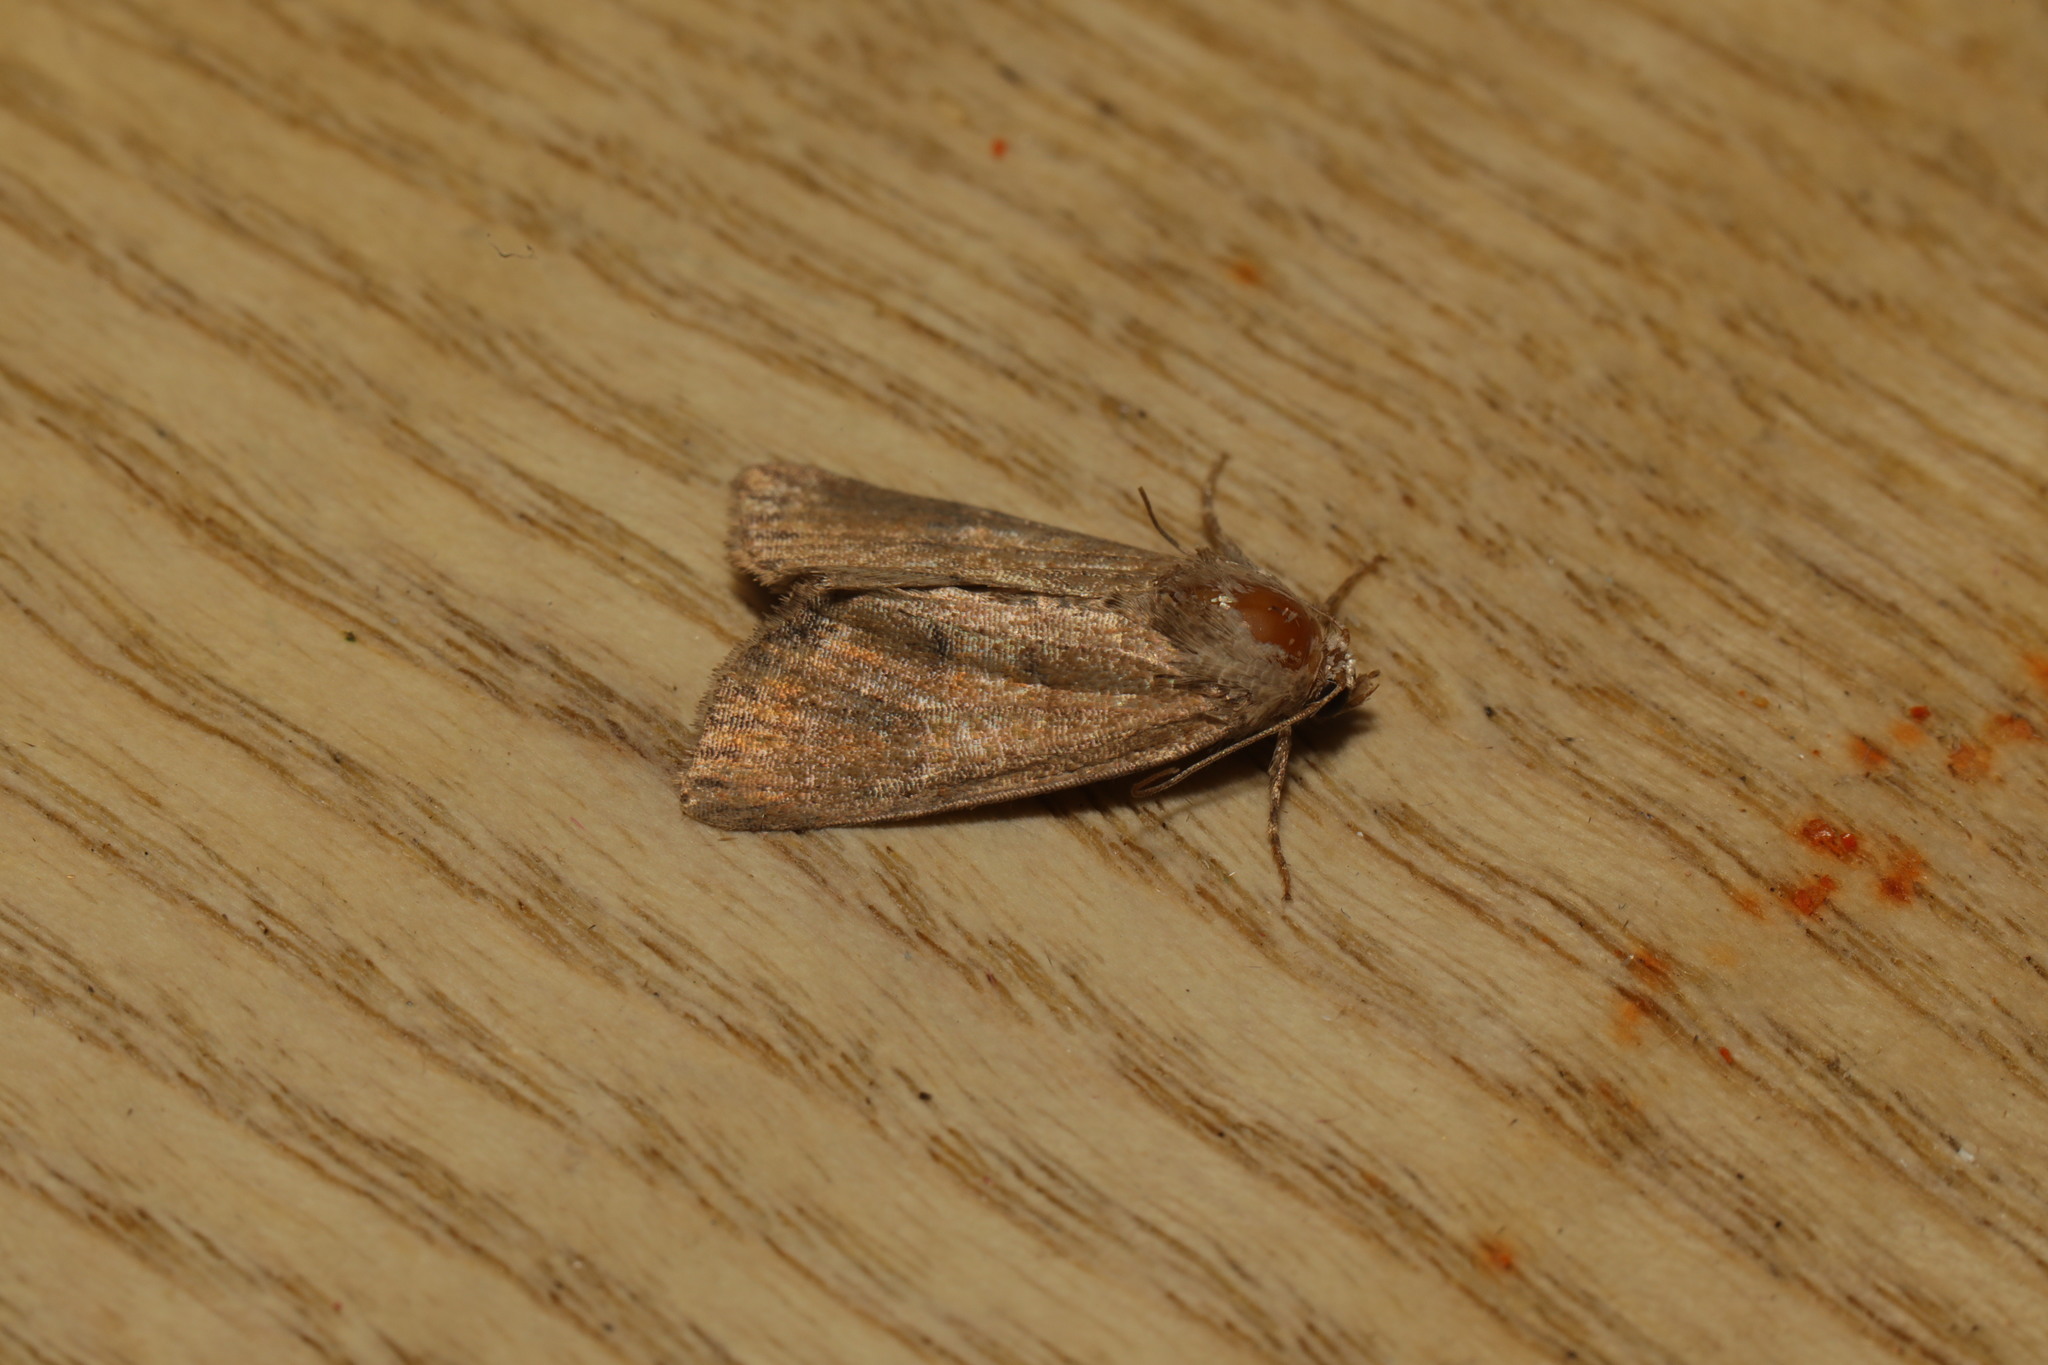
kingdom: Animalia
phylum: Arthropoda
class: Insecta
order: Lepidoptera
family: Noctuidae
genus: Mesoligia
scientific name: Mesoligia furuncula
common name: Cloaked minor
